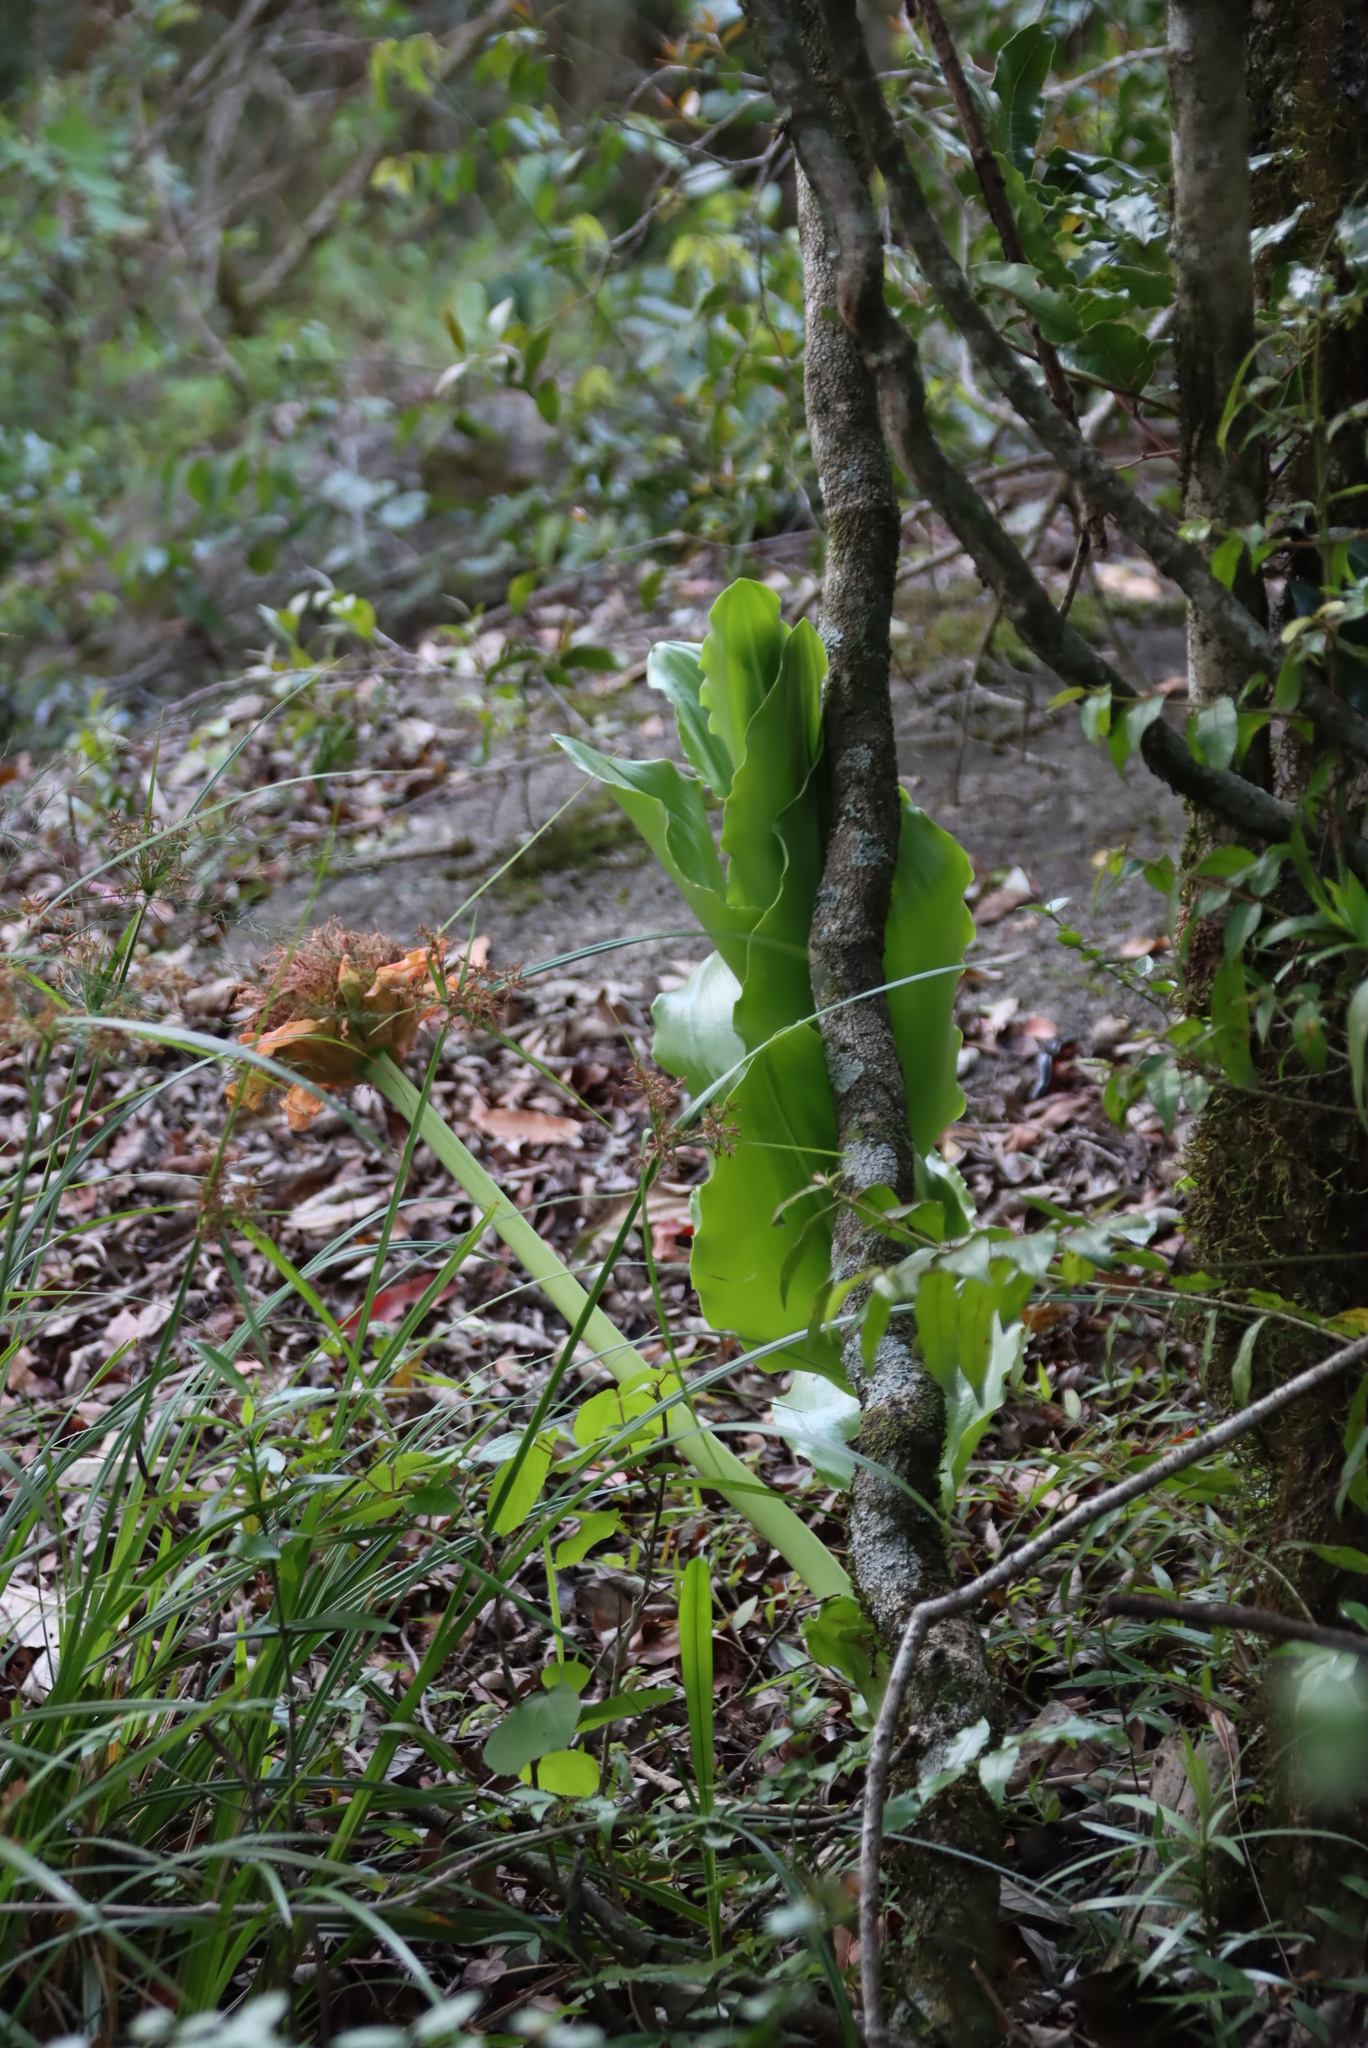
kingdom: Plantae
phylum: Tracheophyta
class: Liliopsida
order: Asparagales
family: Amaryllidaceae
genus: Scadoxus
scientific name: Scadoxus puniceus
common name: Royal-paintbrush
